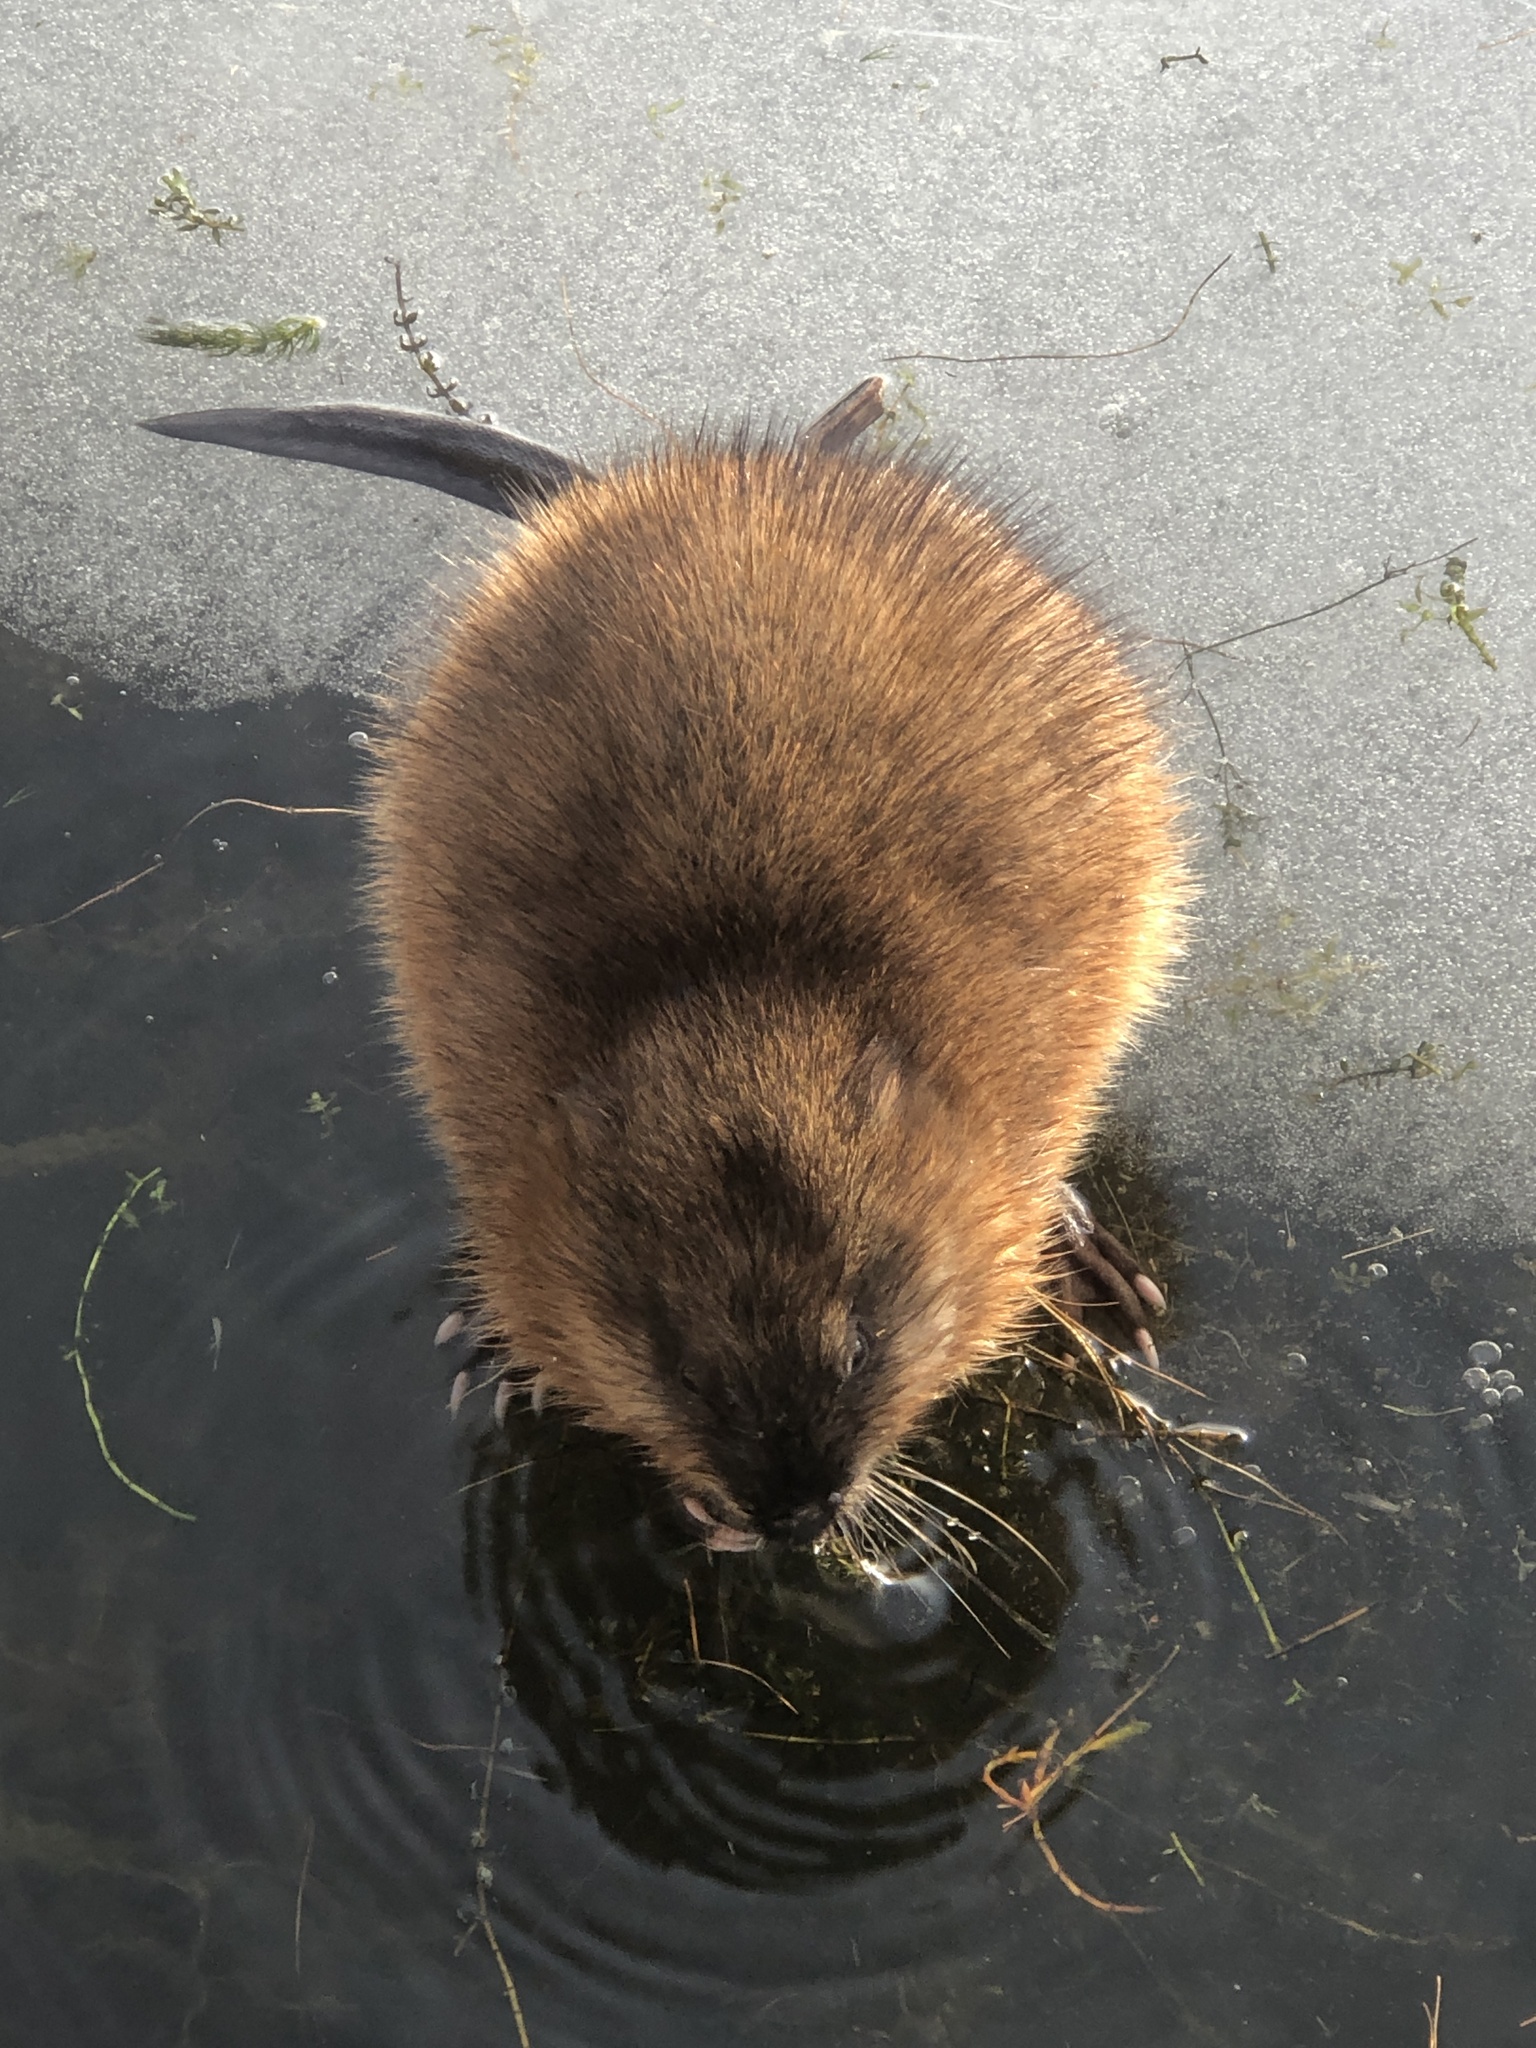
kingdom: Animalia
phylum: Chordata
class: Mammalia
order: Rodentia
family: Cricetidae
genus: Ondatra
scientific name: Ondatra zibethicus
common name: Muskrat
